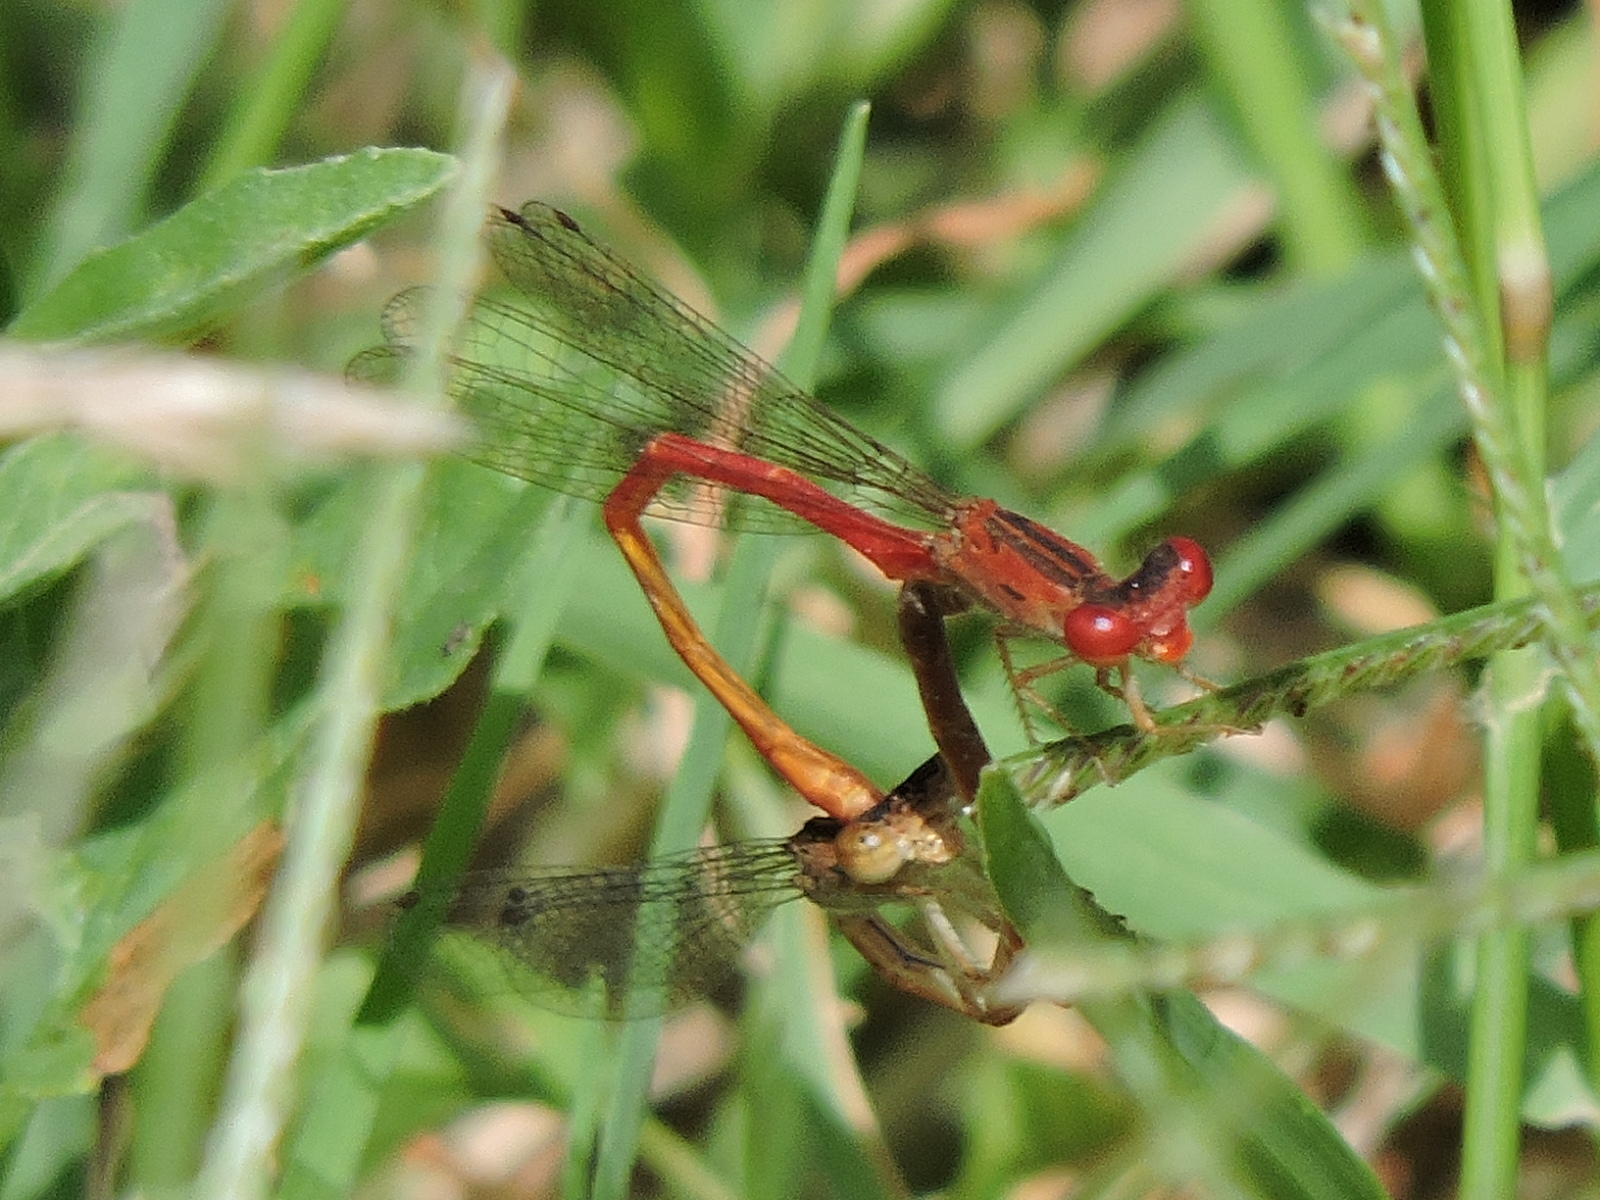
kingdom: Animalia
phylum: Arthropoda
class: Insecta
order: Odonata
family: Coenagrionidae
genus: Telebasis
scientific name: Telebasis salva
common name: Desert firetail
